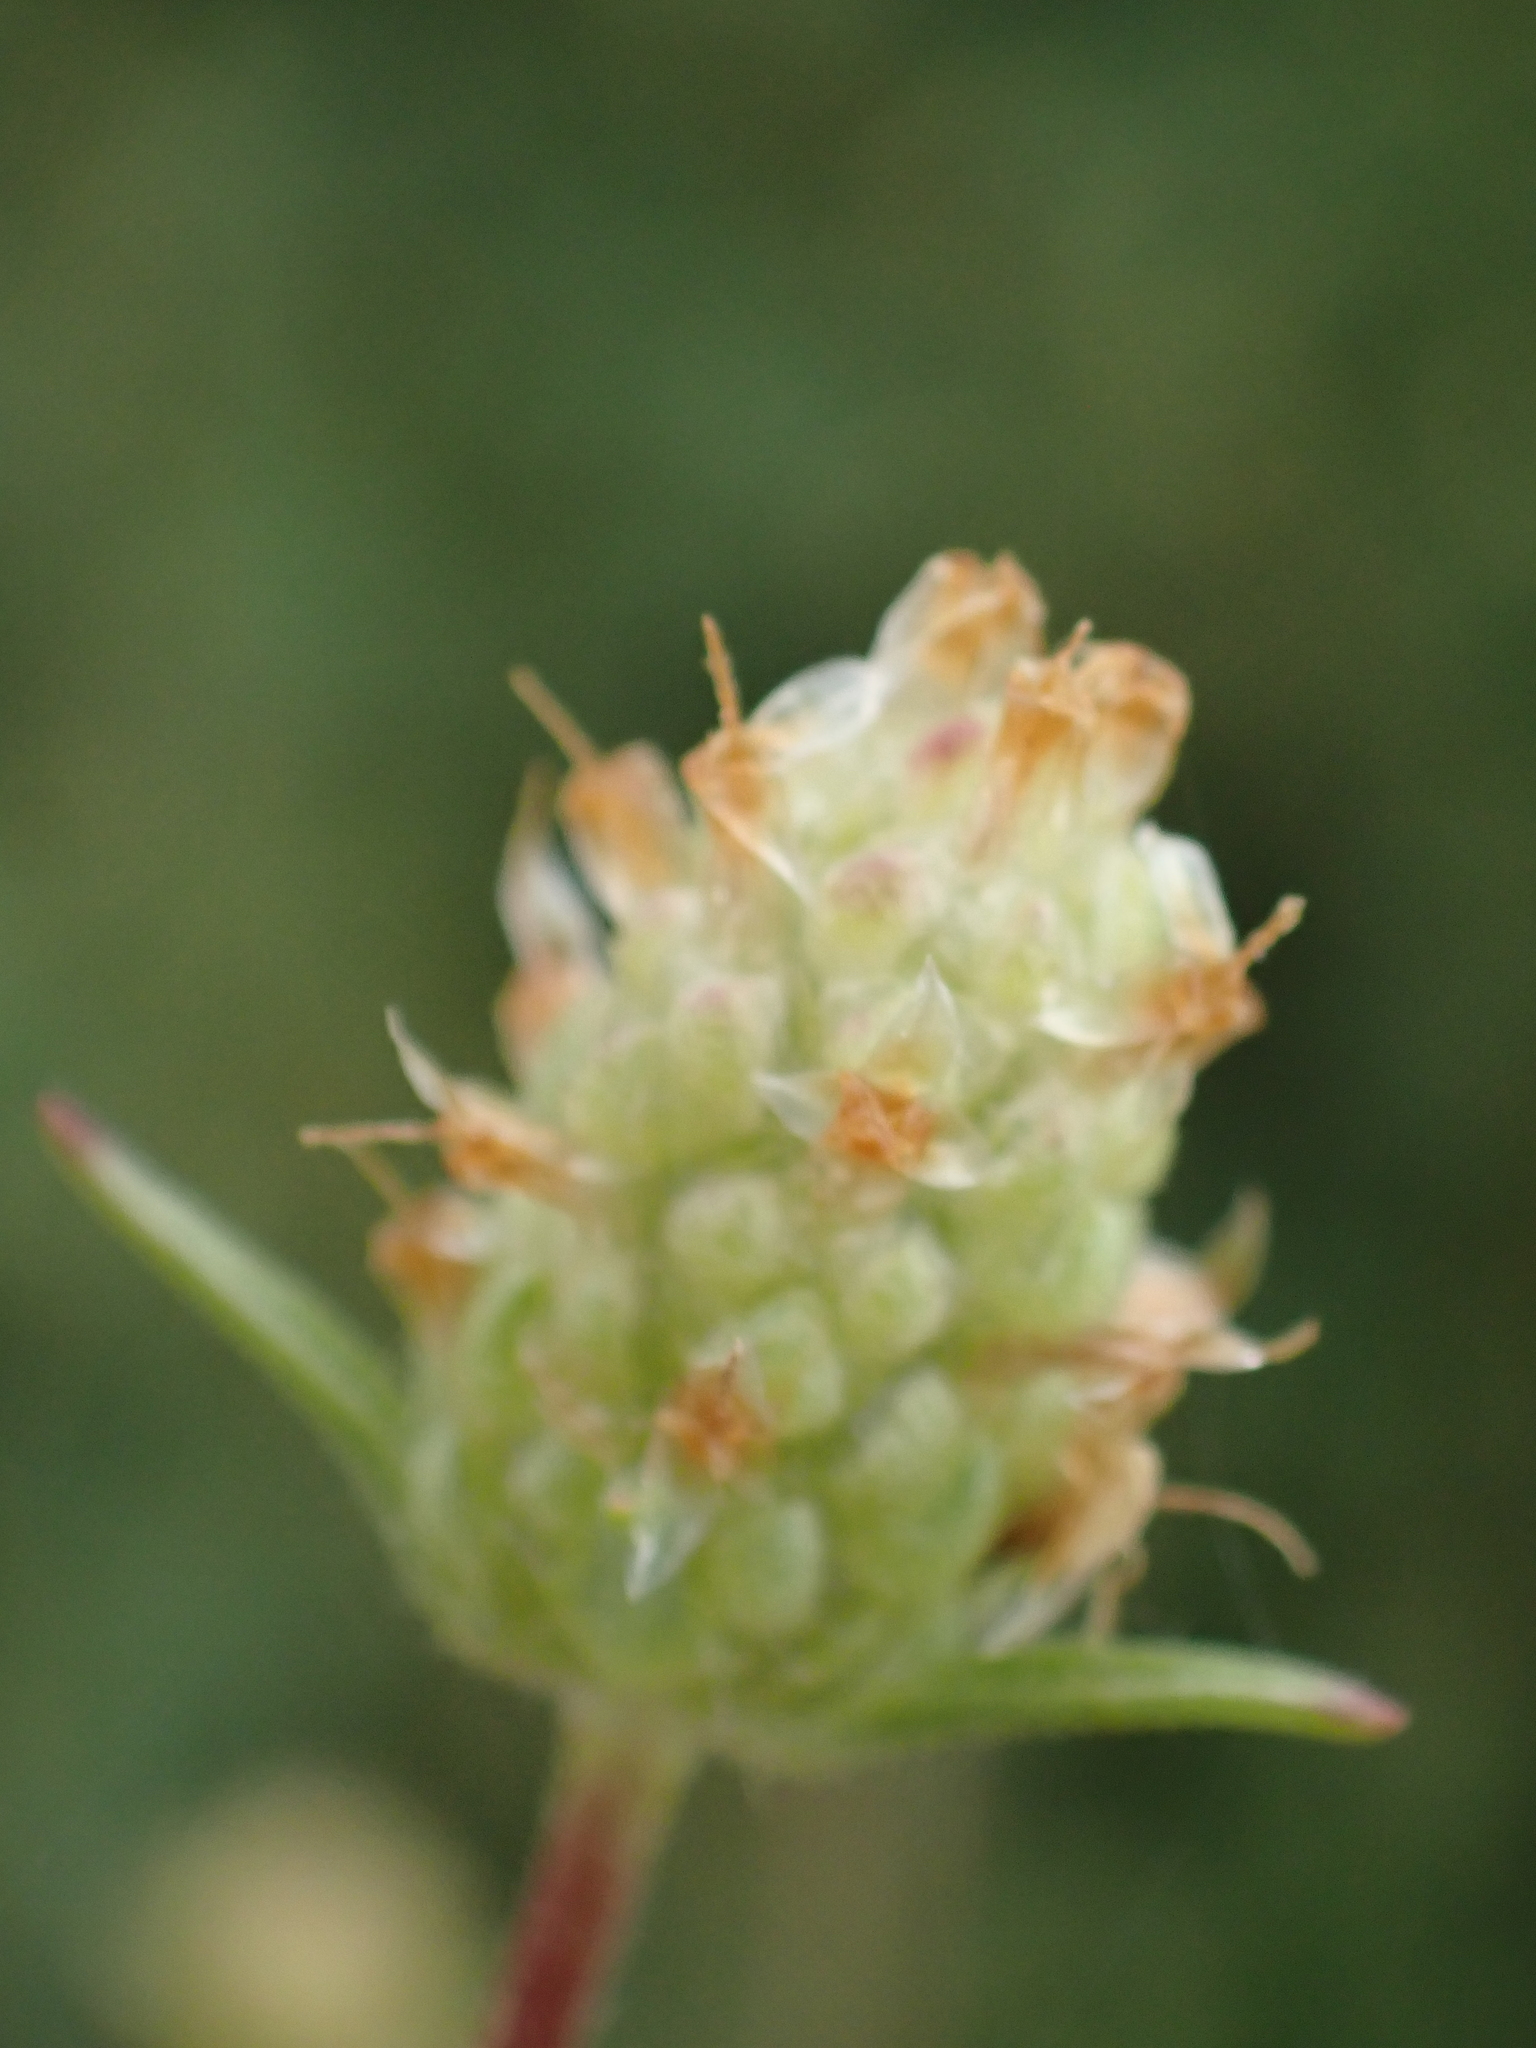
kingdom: Plantae
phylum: Tracheophyta
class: Magnoliopsida
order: Lamiales
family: Plantaginaceae
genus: Plantago
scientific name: Plantago arenaria
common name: Branched plantain
